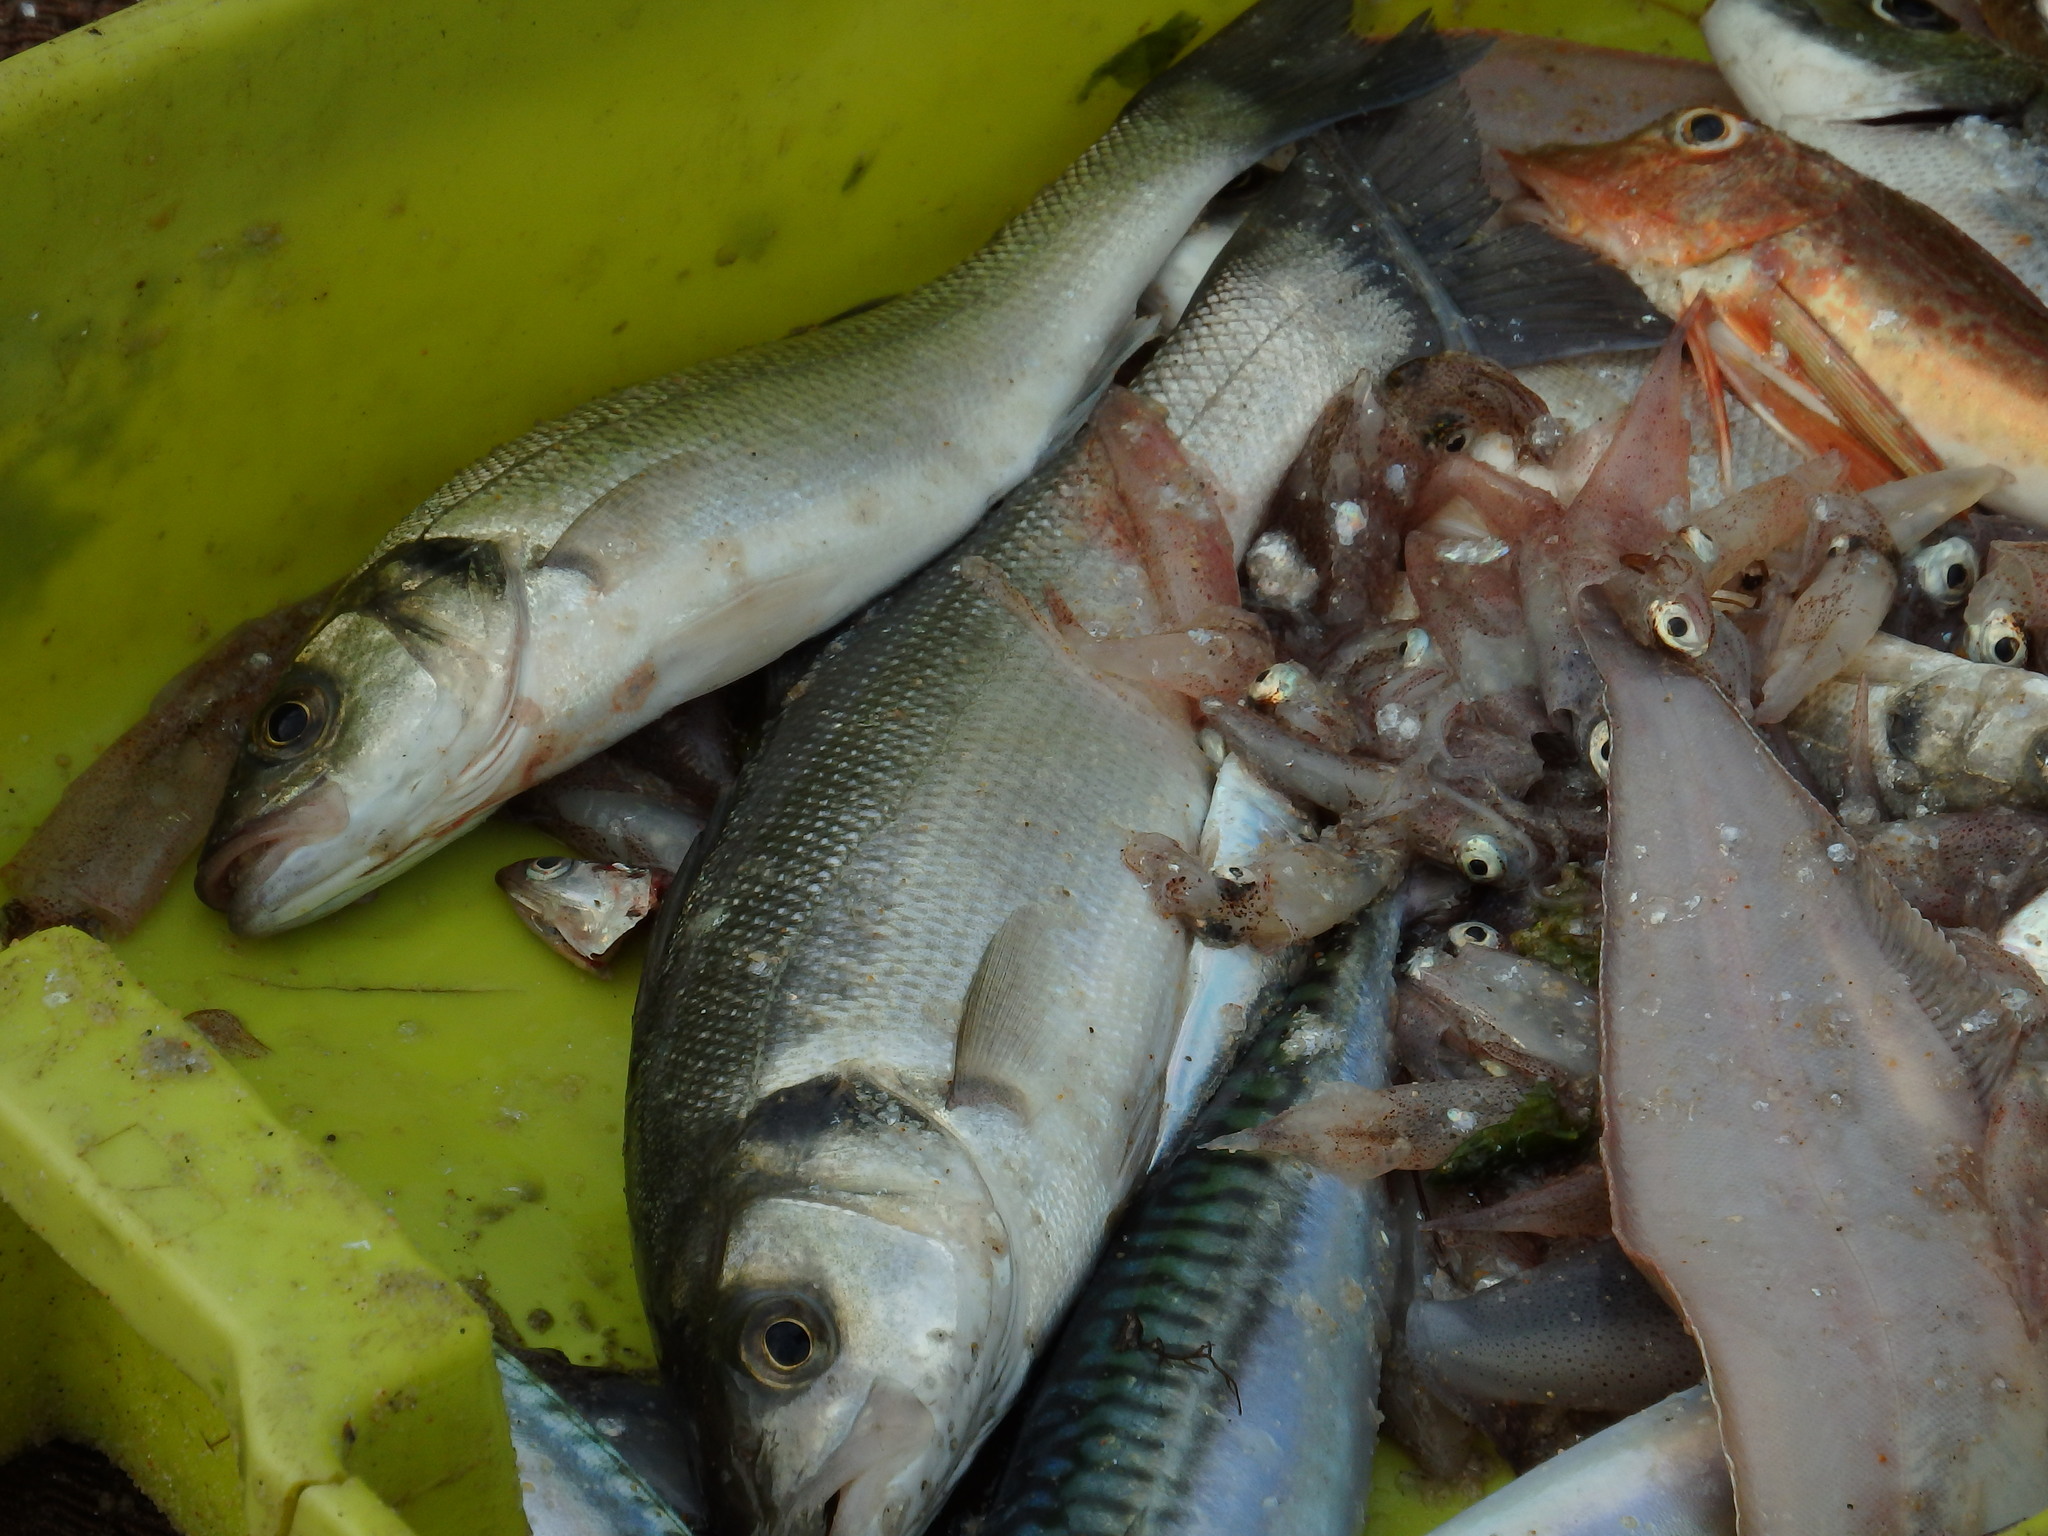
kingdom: Animalia
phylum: Chordata
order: Perciformes
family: Moronidae
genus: Dicentrarchus
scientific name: Dicentrarchus labrax
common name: European seabass
